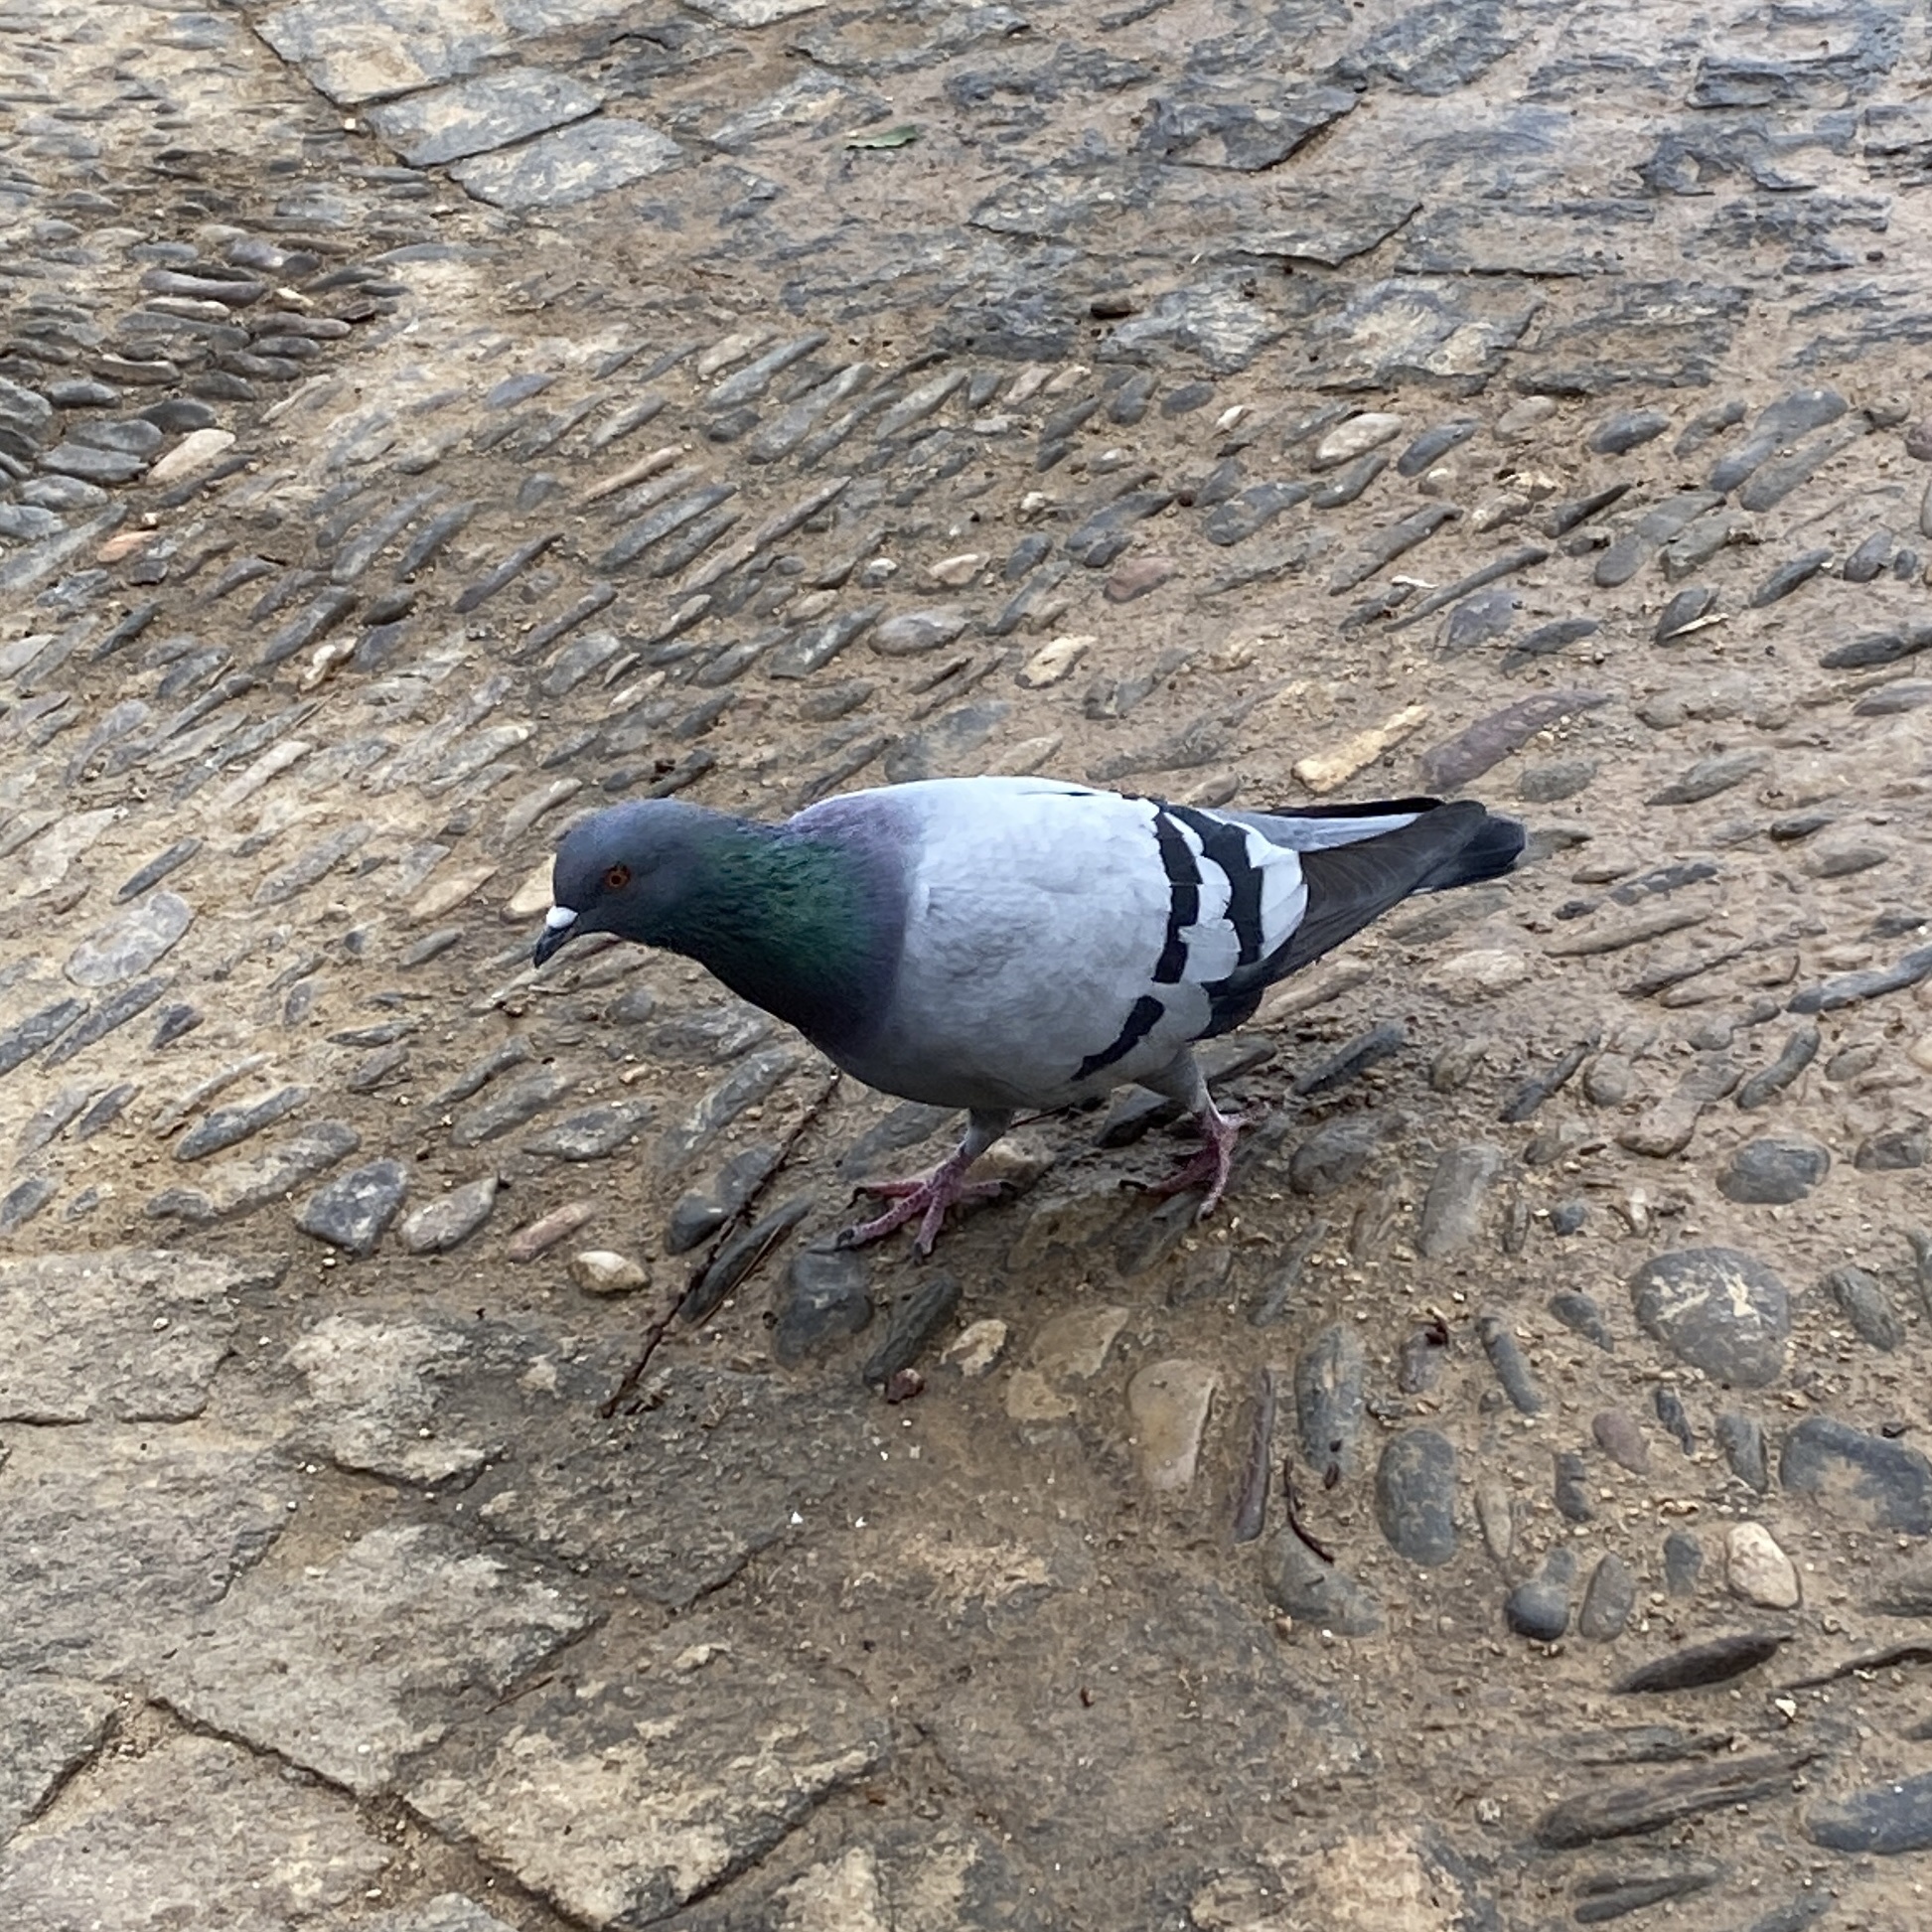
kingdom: Animalia
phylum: Chordata
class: Aves
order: Columbiformes
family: Columbidae
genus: Columba
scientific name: Columba livia
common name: Rock pigeon
